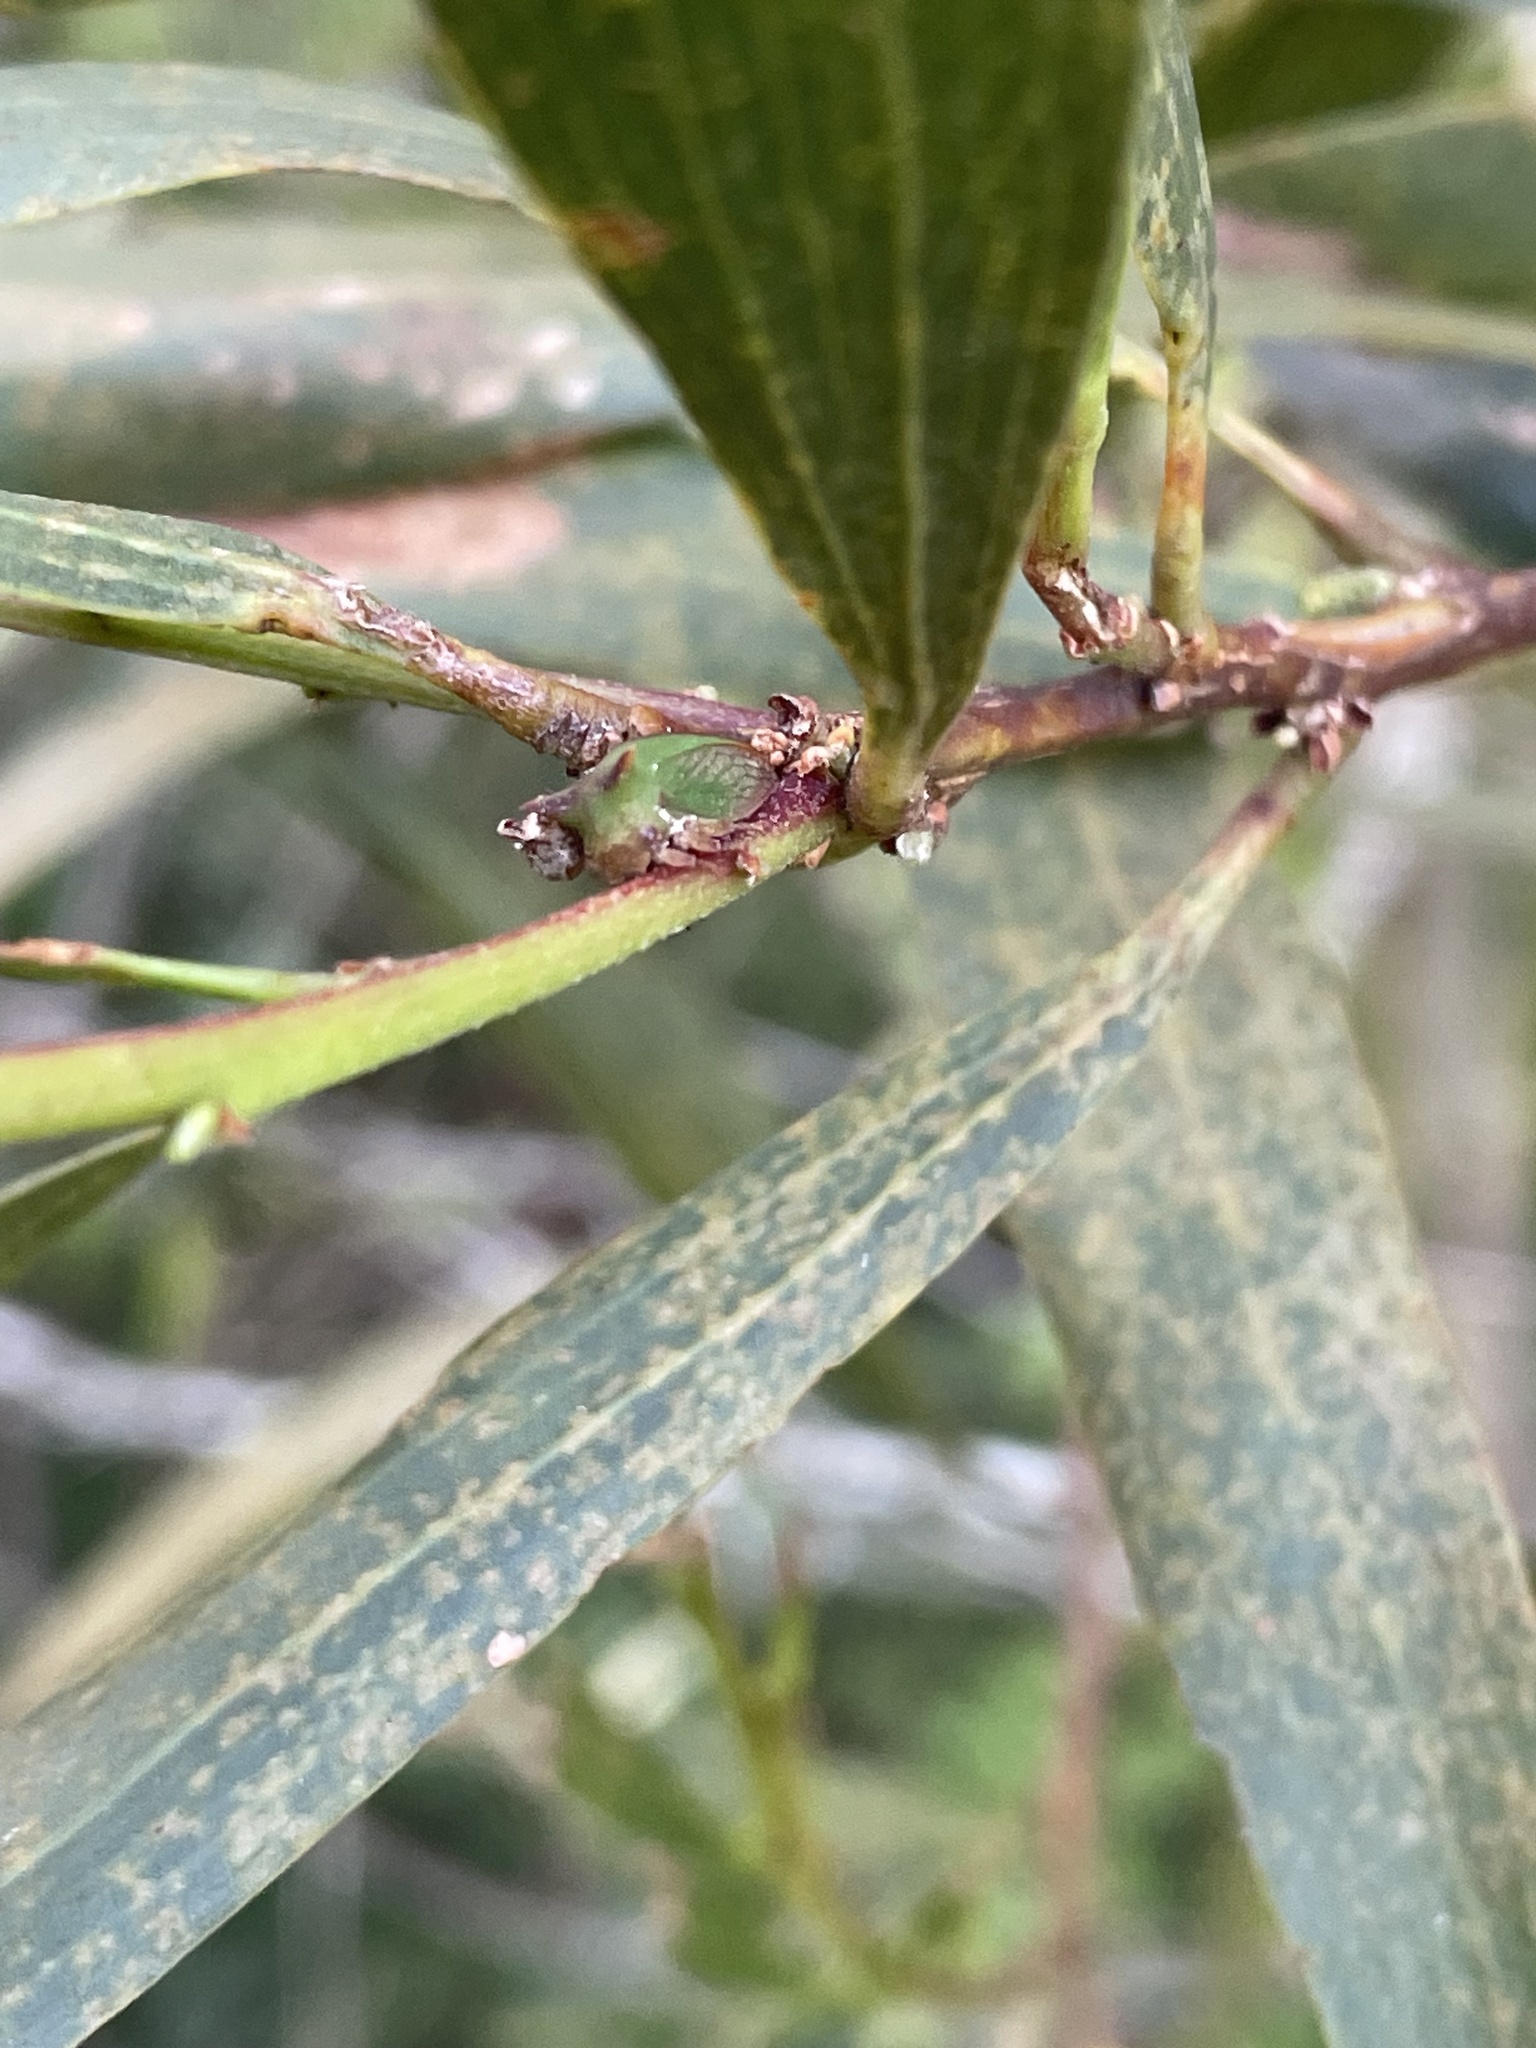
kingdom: Animalia
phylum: Arthropoda
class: Insecta
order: Hemiptera
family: Membracidae
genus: Sextius
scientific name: Sextius virescens
